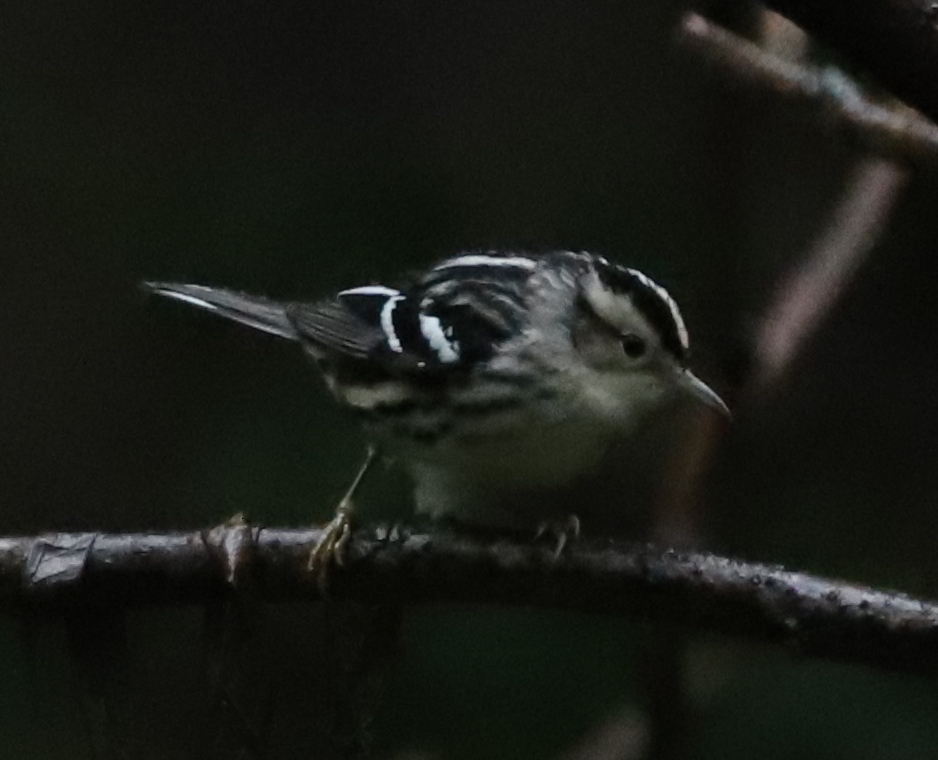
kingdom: Animalia
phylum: Chordata
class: Aves
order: Passeriformes
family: Parulidae
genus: Mniotilta
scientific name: Mniotilta varia
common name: Black-and-white warbler
